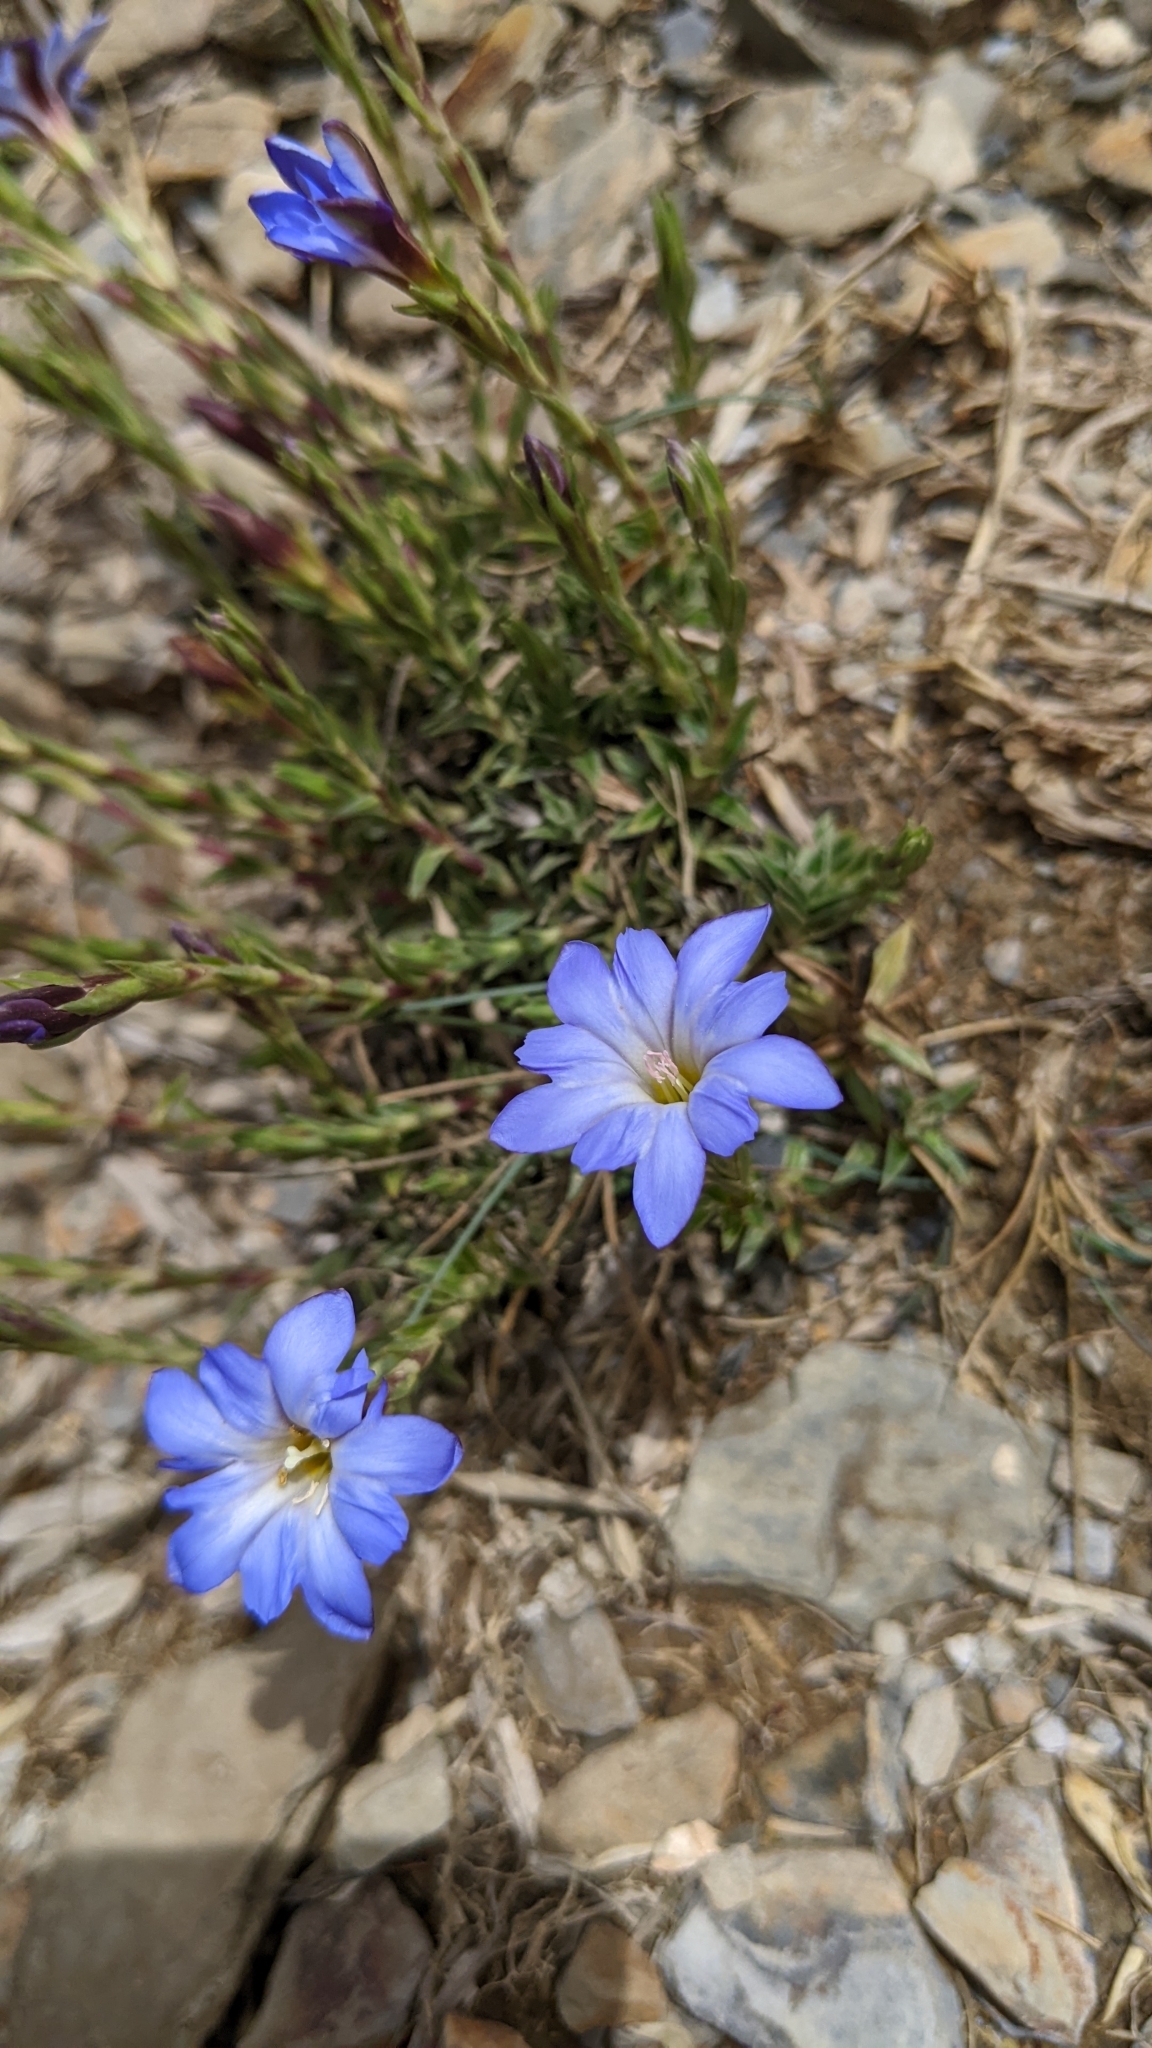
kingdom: Plantae
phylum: Tracheophyta
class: Magnoliopsida
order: Gentianales
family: Gentianaceae
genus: Gentiana
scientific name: Gentiana arisanensis
